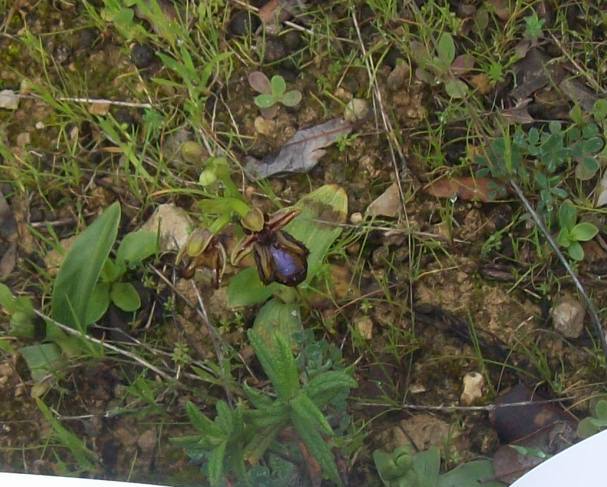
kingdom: Plantae
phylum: Tracheophyta
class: Liliopsida
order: Asparagales
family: Orchidaceae
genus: Ophrys
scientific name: Ophrys speculum
